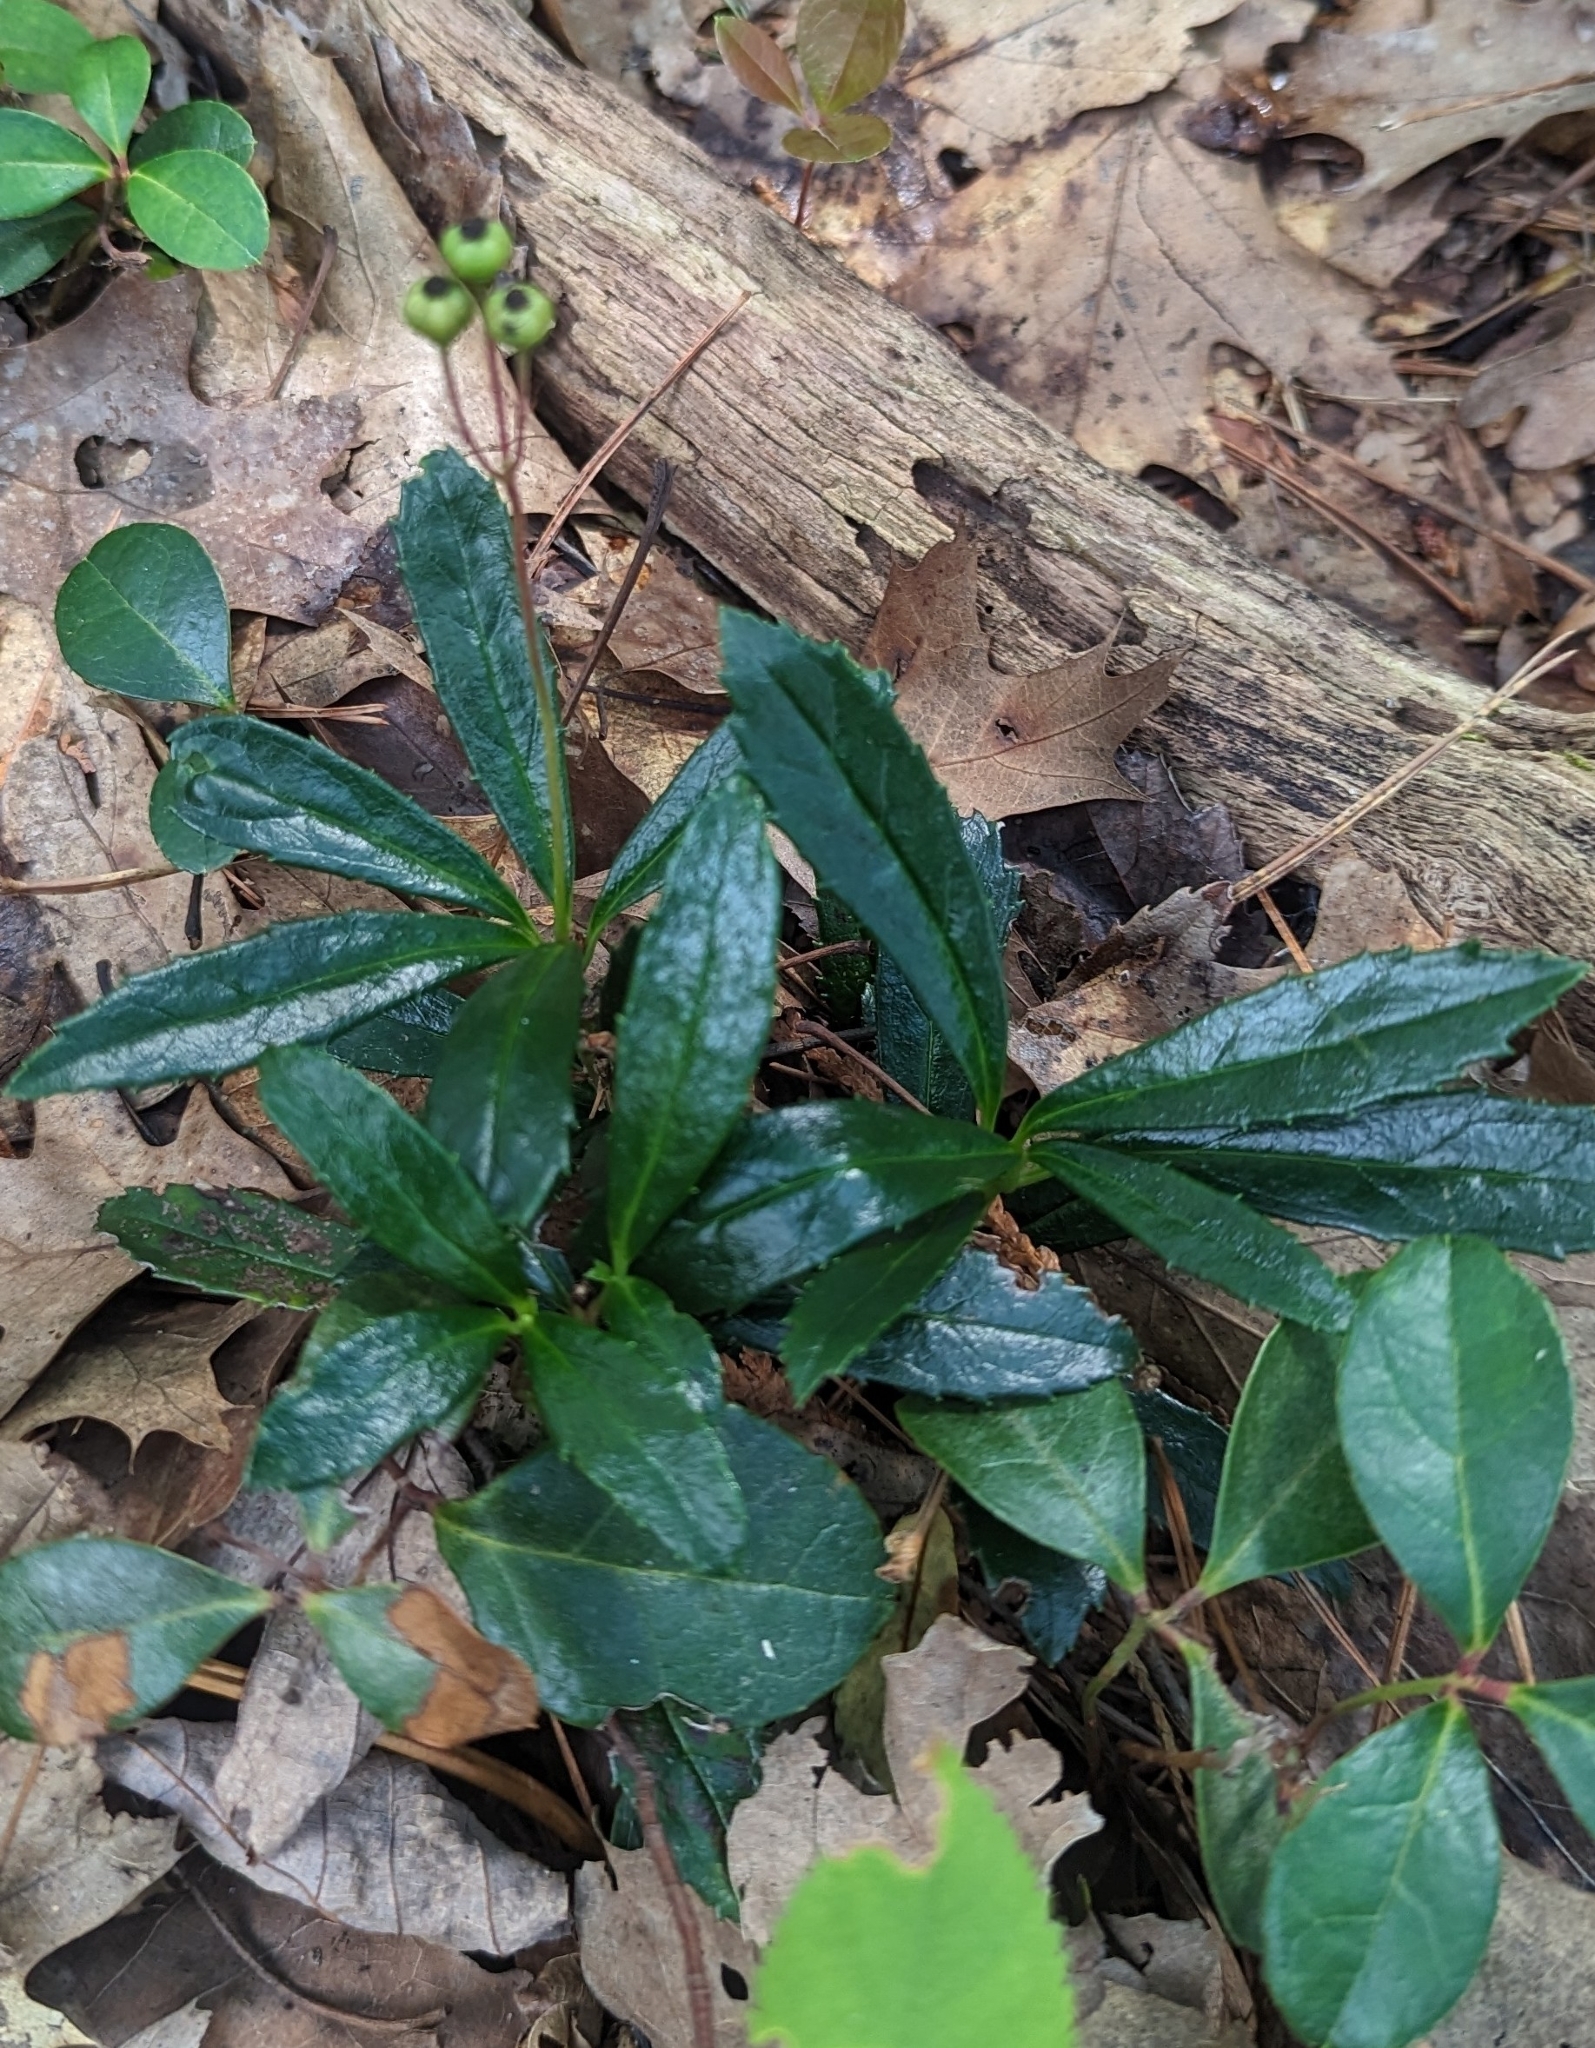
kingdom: Plantae
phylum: Tracheophyta
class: Magnoliopsida
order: Ericales
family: Ericaceae
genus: Chimaphila
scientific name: Chimaphila umbellata
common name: Pipsissewa
